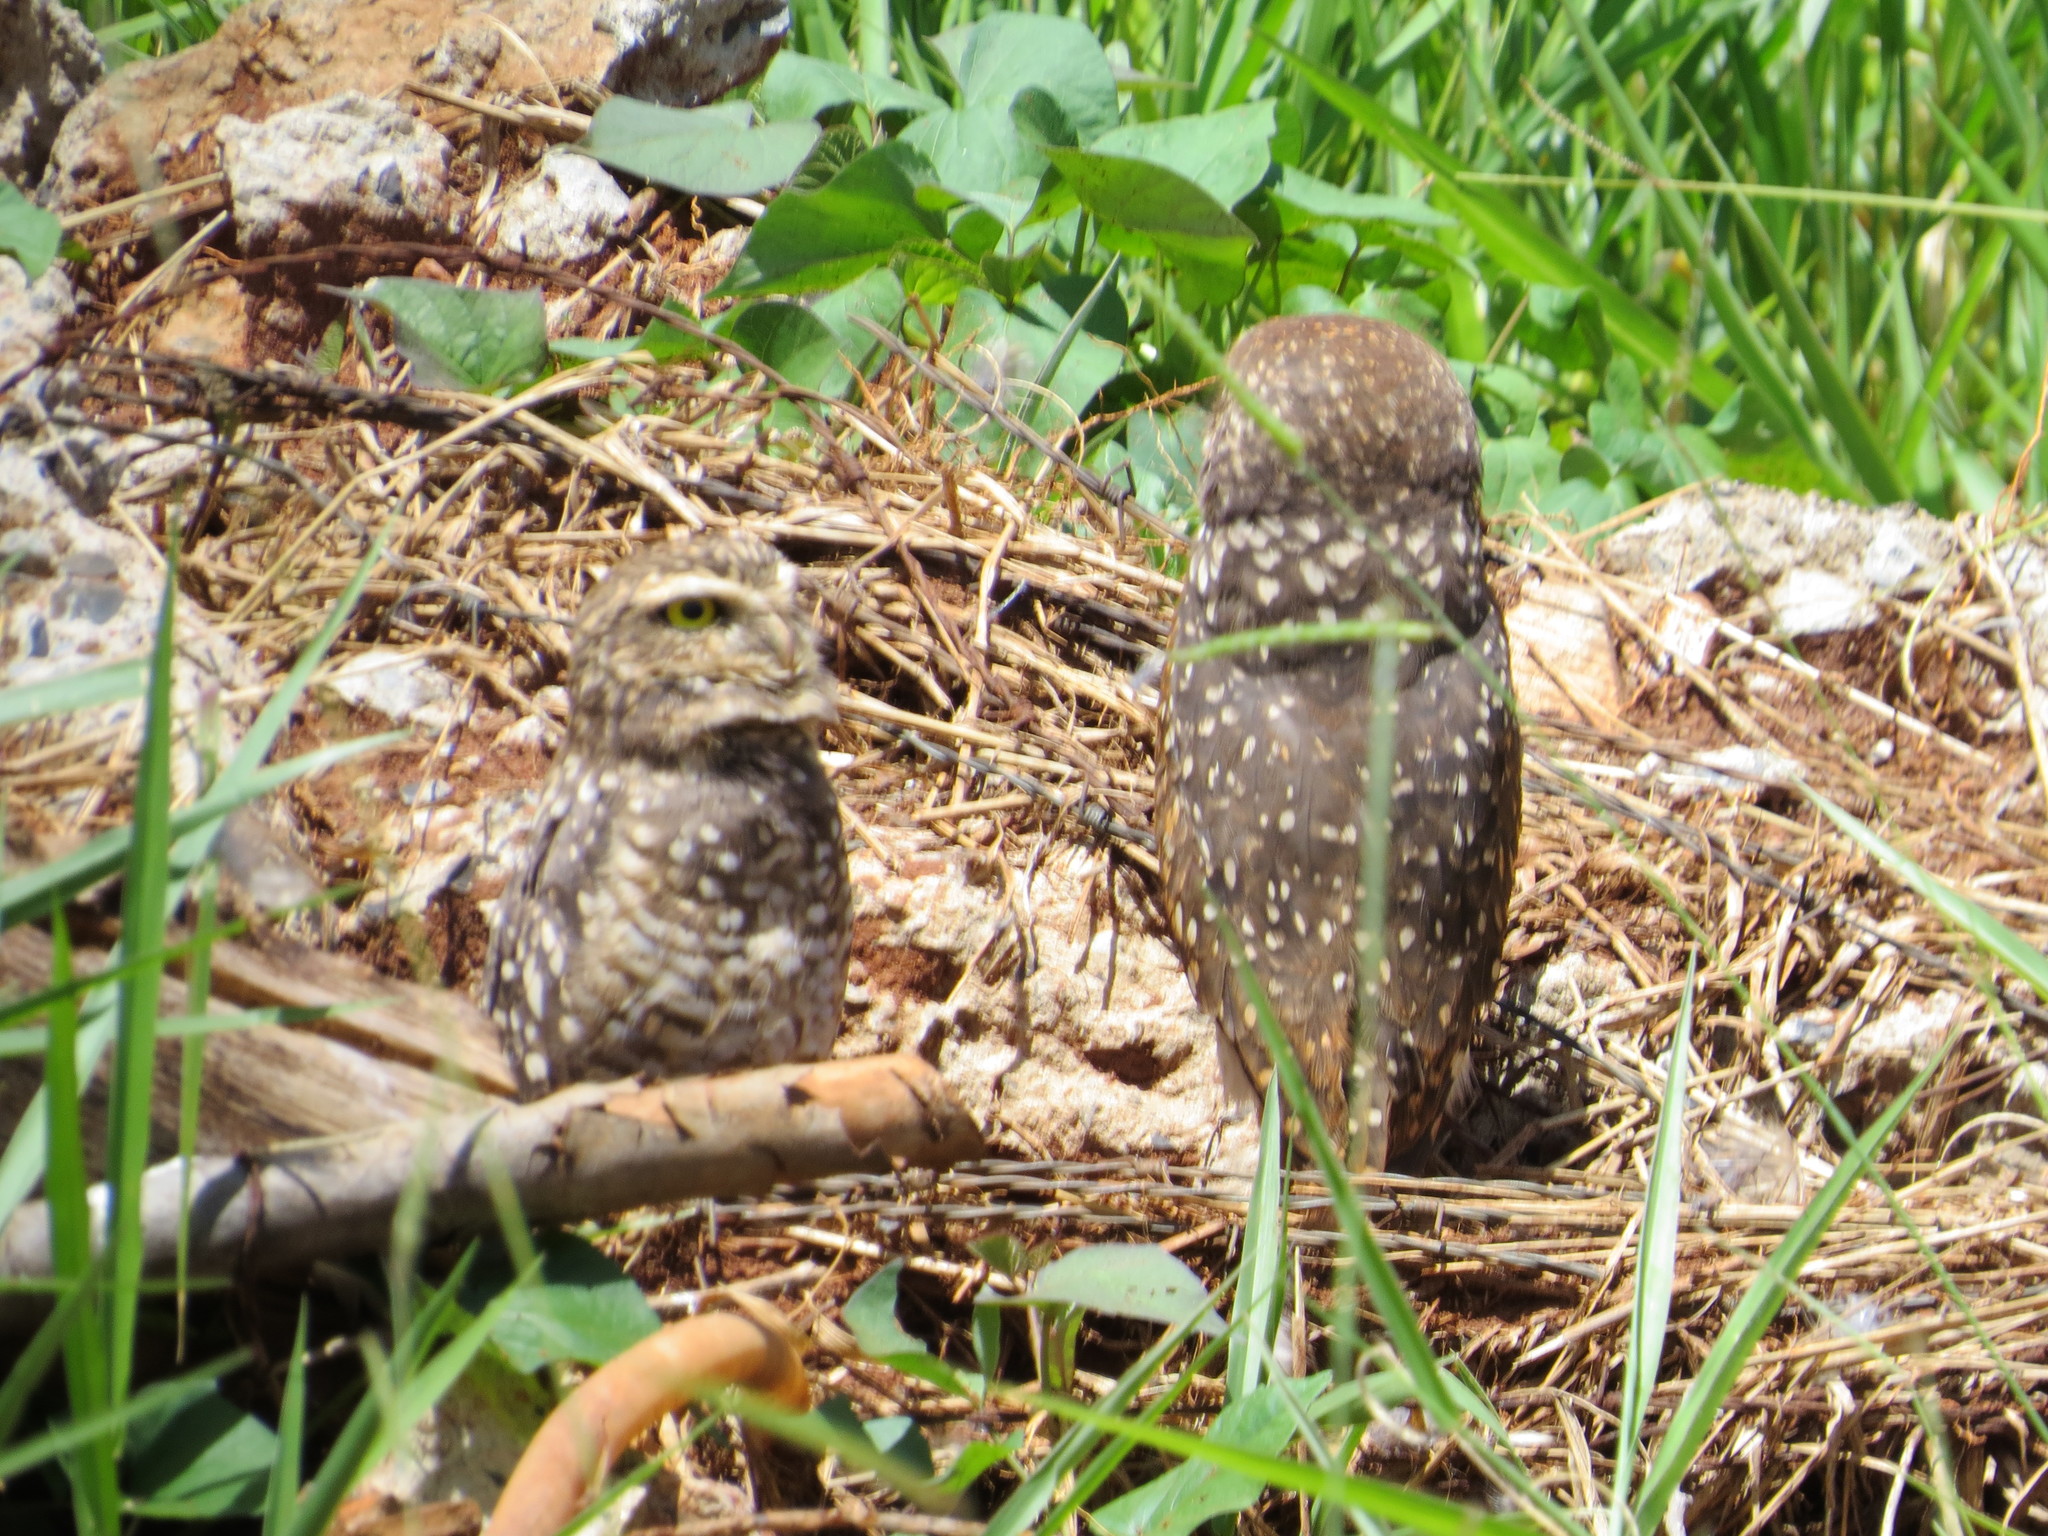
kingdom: Animalia
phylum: Chordata
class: Aves
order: Strigiformes
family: Strigidae
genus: Athene
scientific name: Athene cunicularia
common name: Burrowing owl
